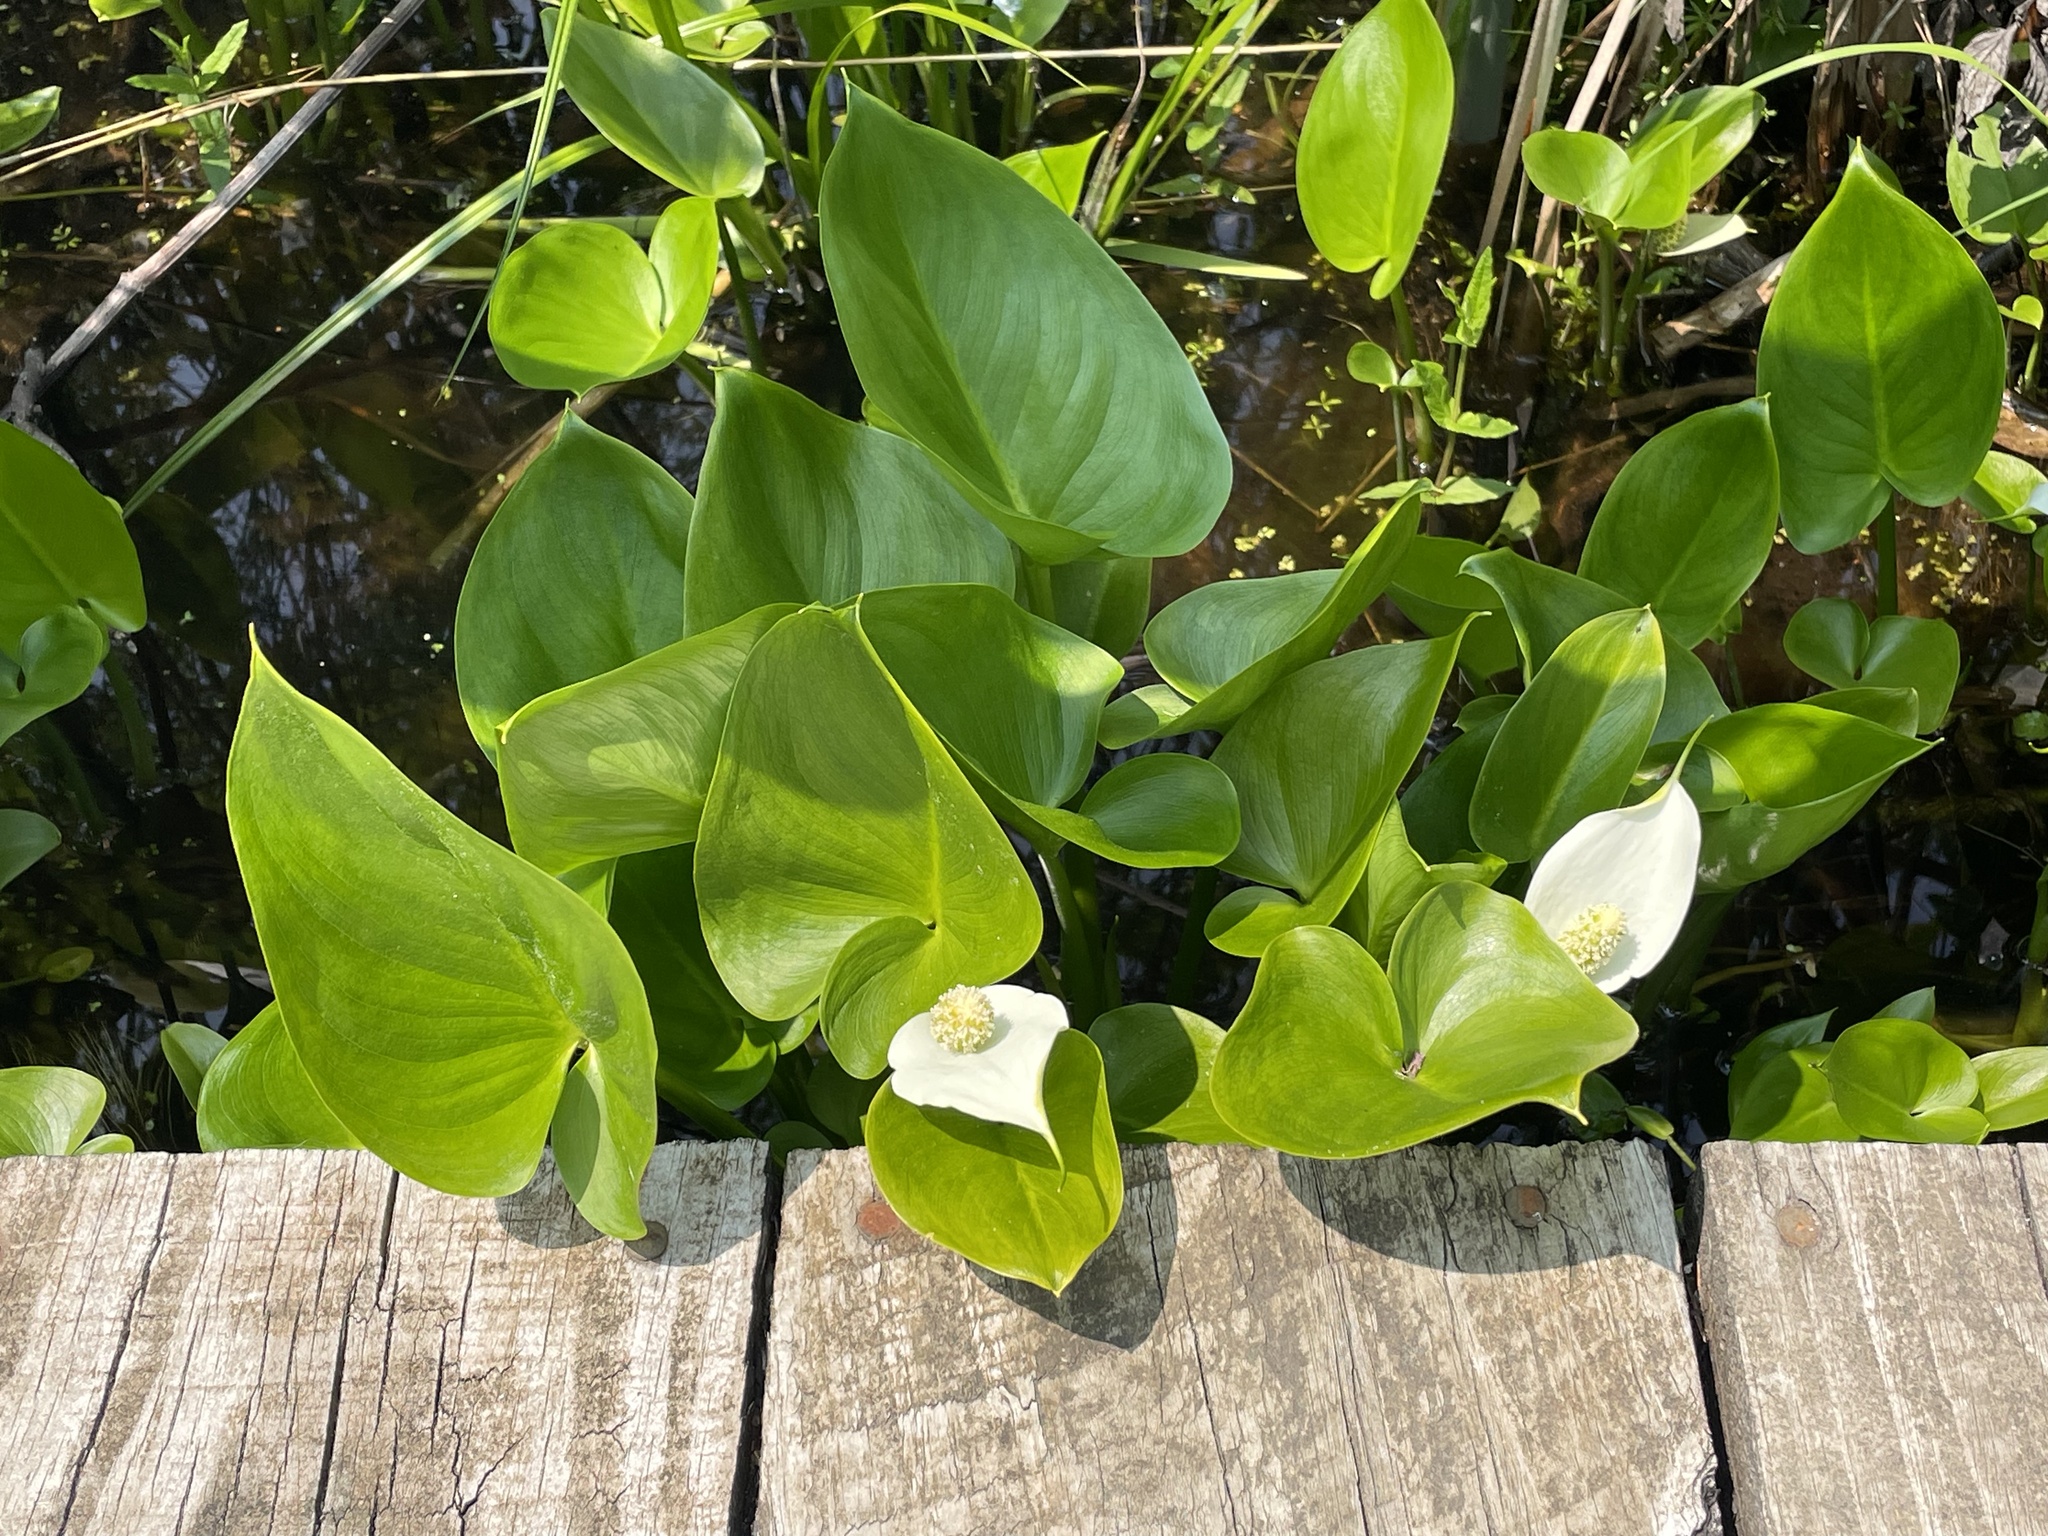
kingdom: Plantae
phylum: Tracheophyta
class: Liliopsida
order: Alismatales
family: Araceae
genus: Calla
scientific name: Calla palustris
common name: Bog arum
